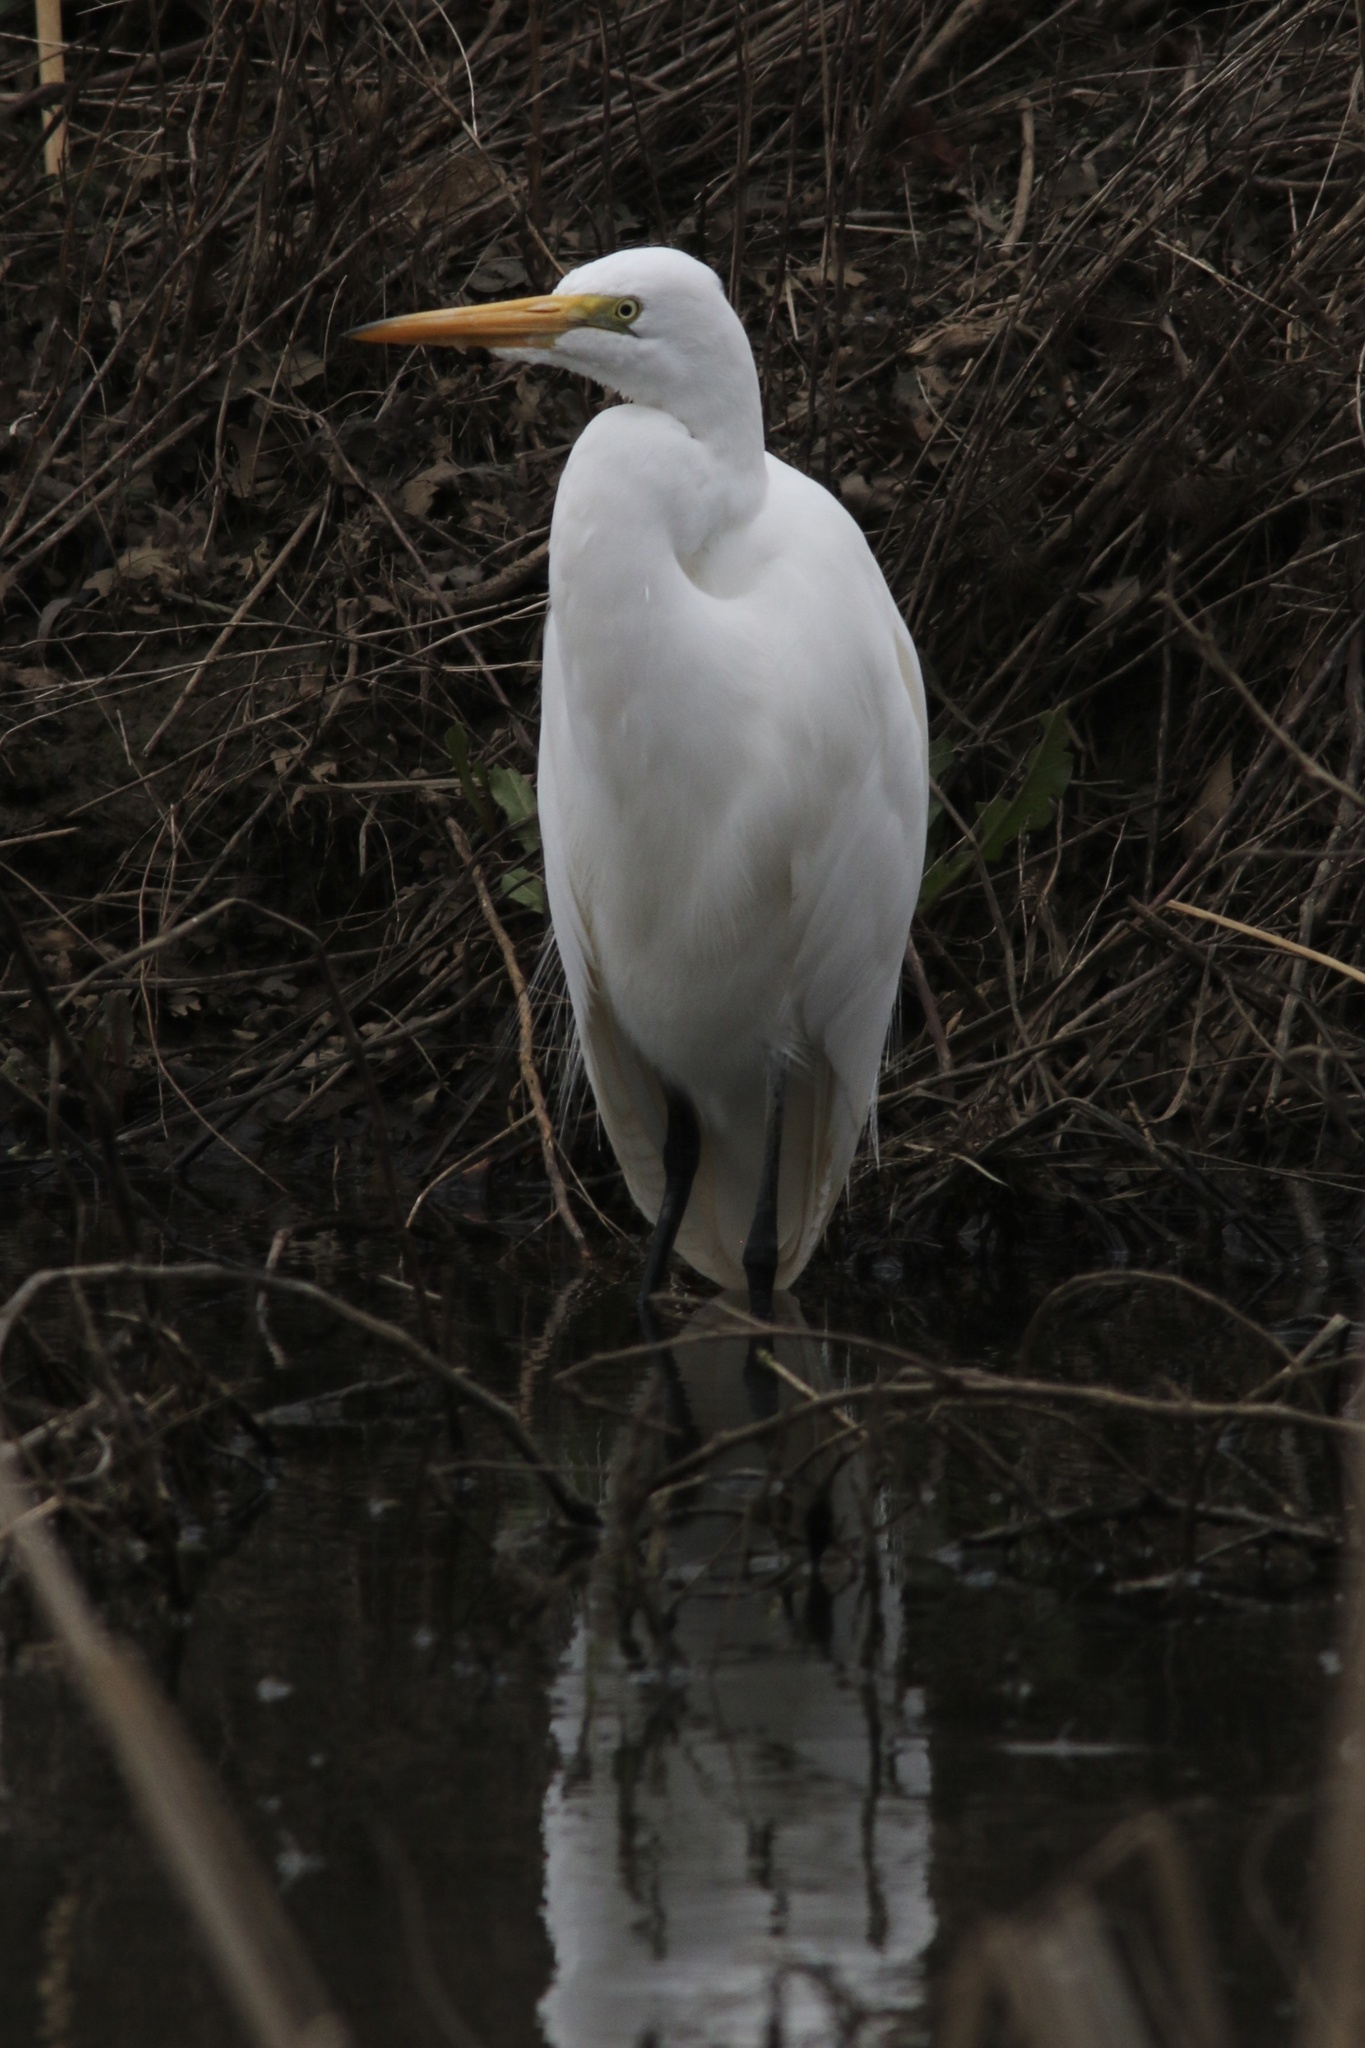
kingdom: Animalia
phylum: Chordata
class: Aves
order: Pelecaniformes
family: Ardeidae
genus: Ardea
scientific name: Ardea alba
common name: Great egret
